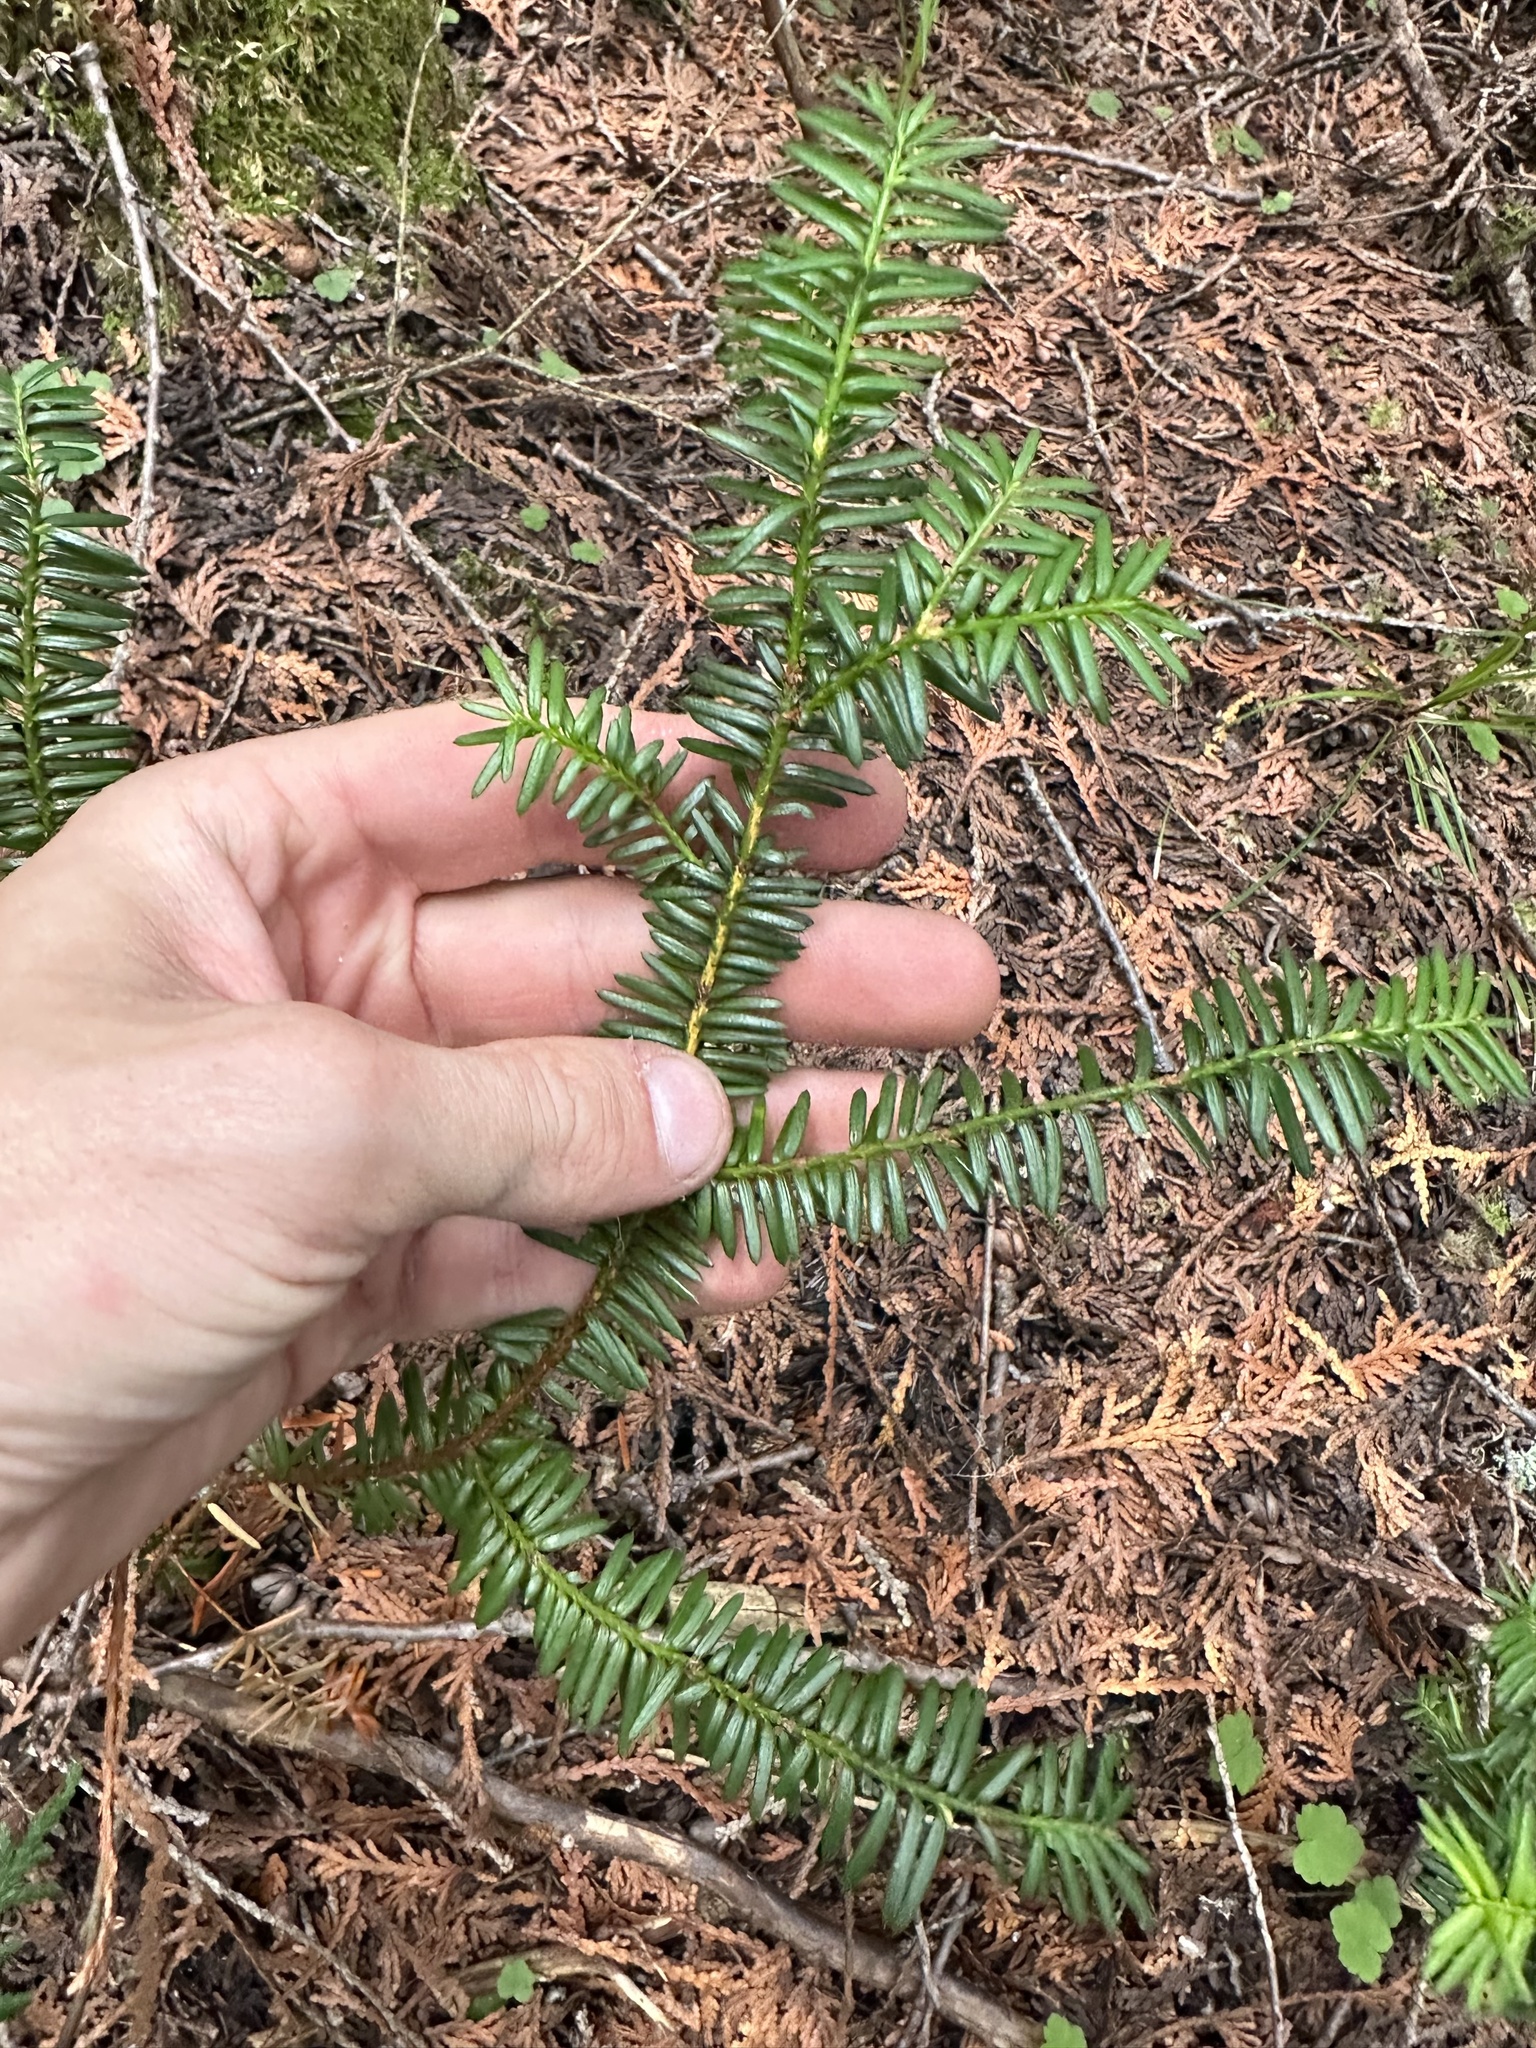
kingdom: Plantae
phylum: Tracheophyta
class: Pinopsida
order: Pinales
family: Taxaceae
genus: Taxus
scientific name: Taxus canadensis
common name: American yew
